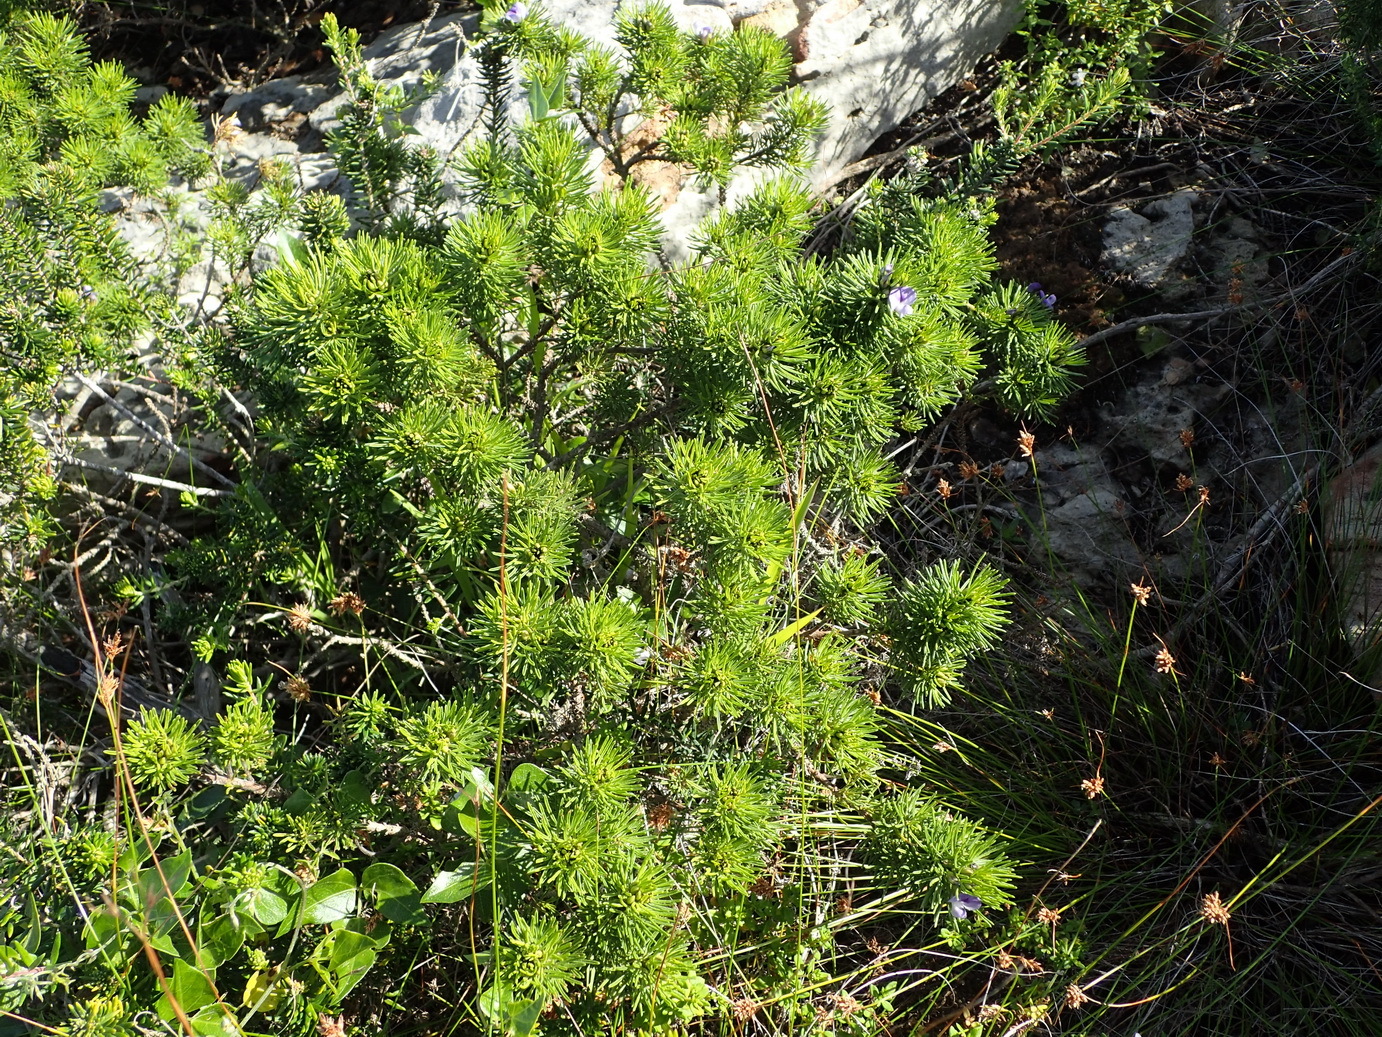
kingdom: Plantae
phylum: Tracheophyta
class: Magnoliopsida
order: Fabales
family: Fabaceae
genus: Psoralea
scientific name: Psoralea vanberkelae
